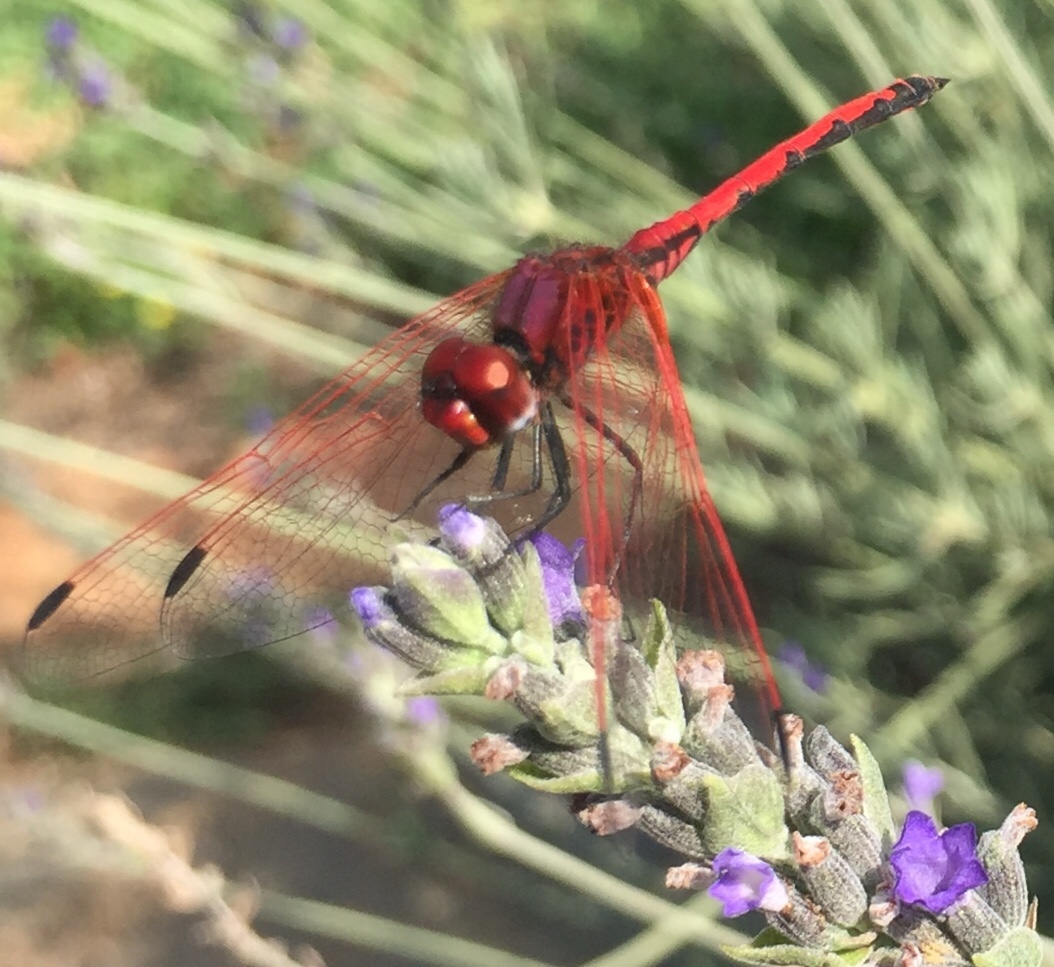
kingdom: Animalia
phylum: Arthropoda
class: Insecta
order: Odonata
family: Libellulidae
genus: Trithemis
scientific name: Trithemis arteriosa
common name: Red-veined dropwing
